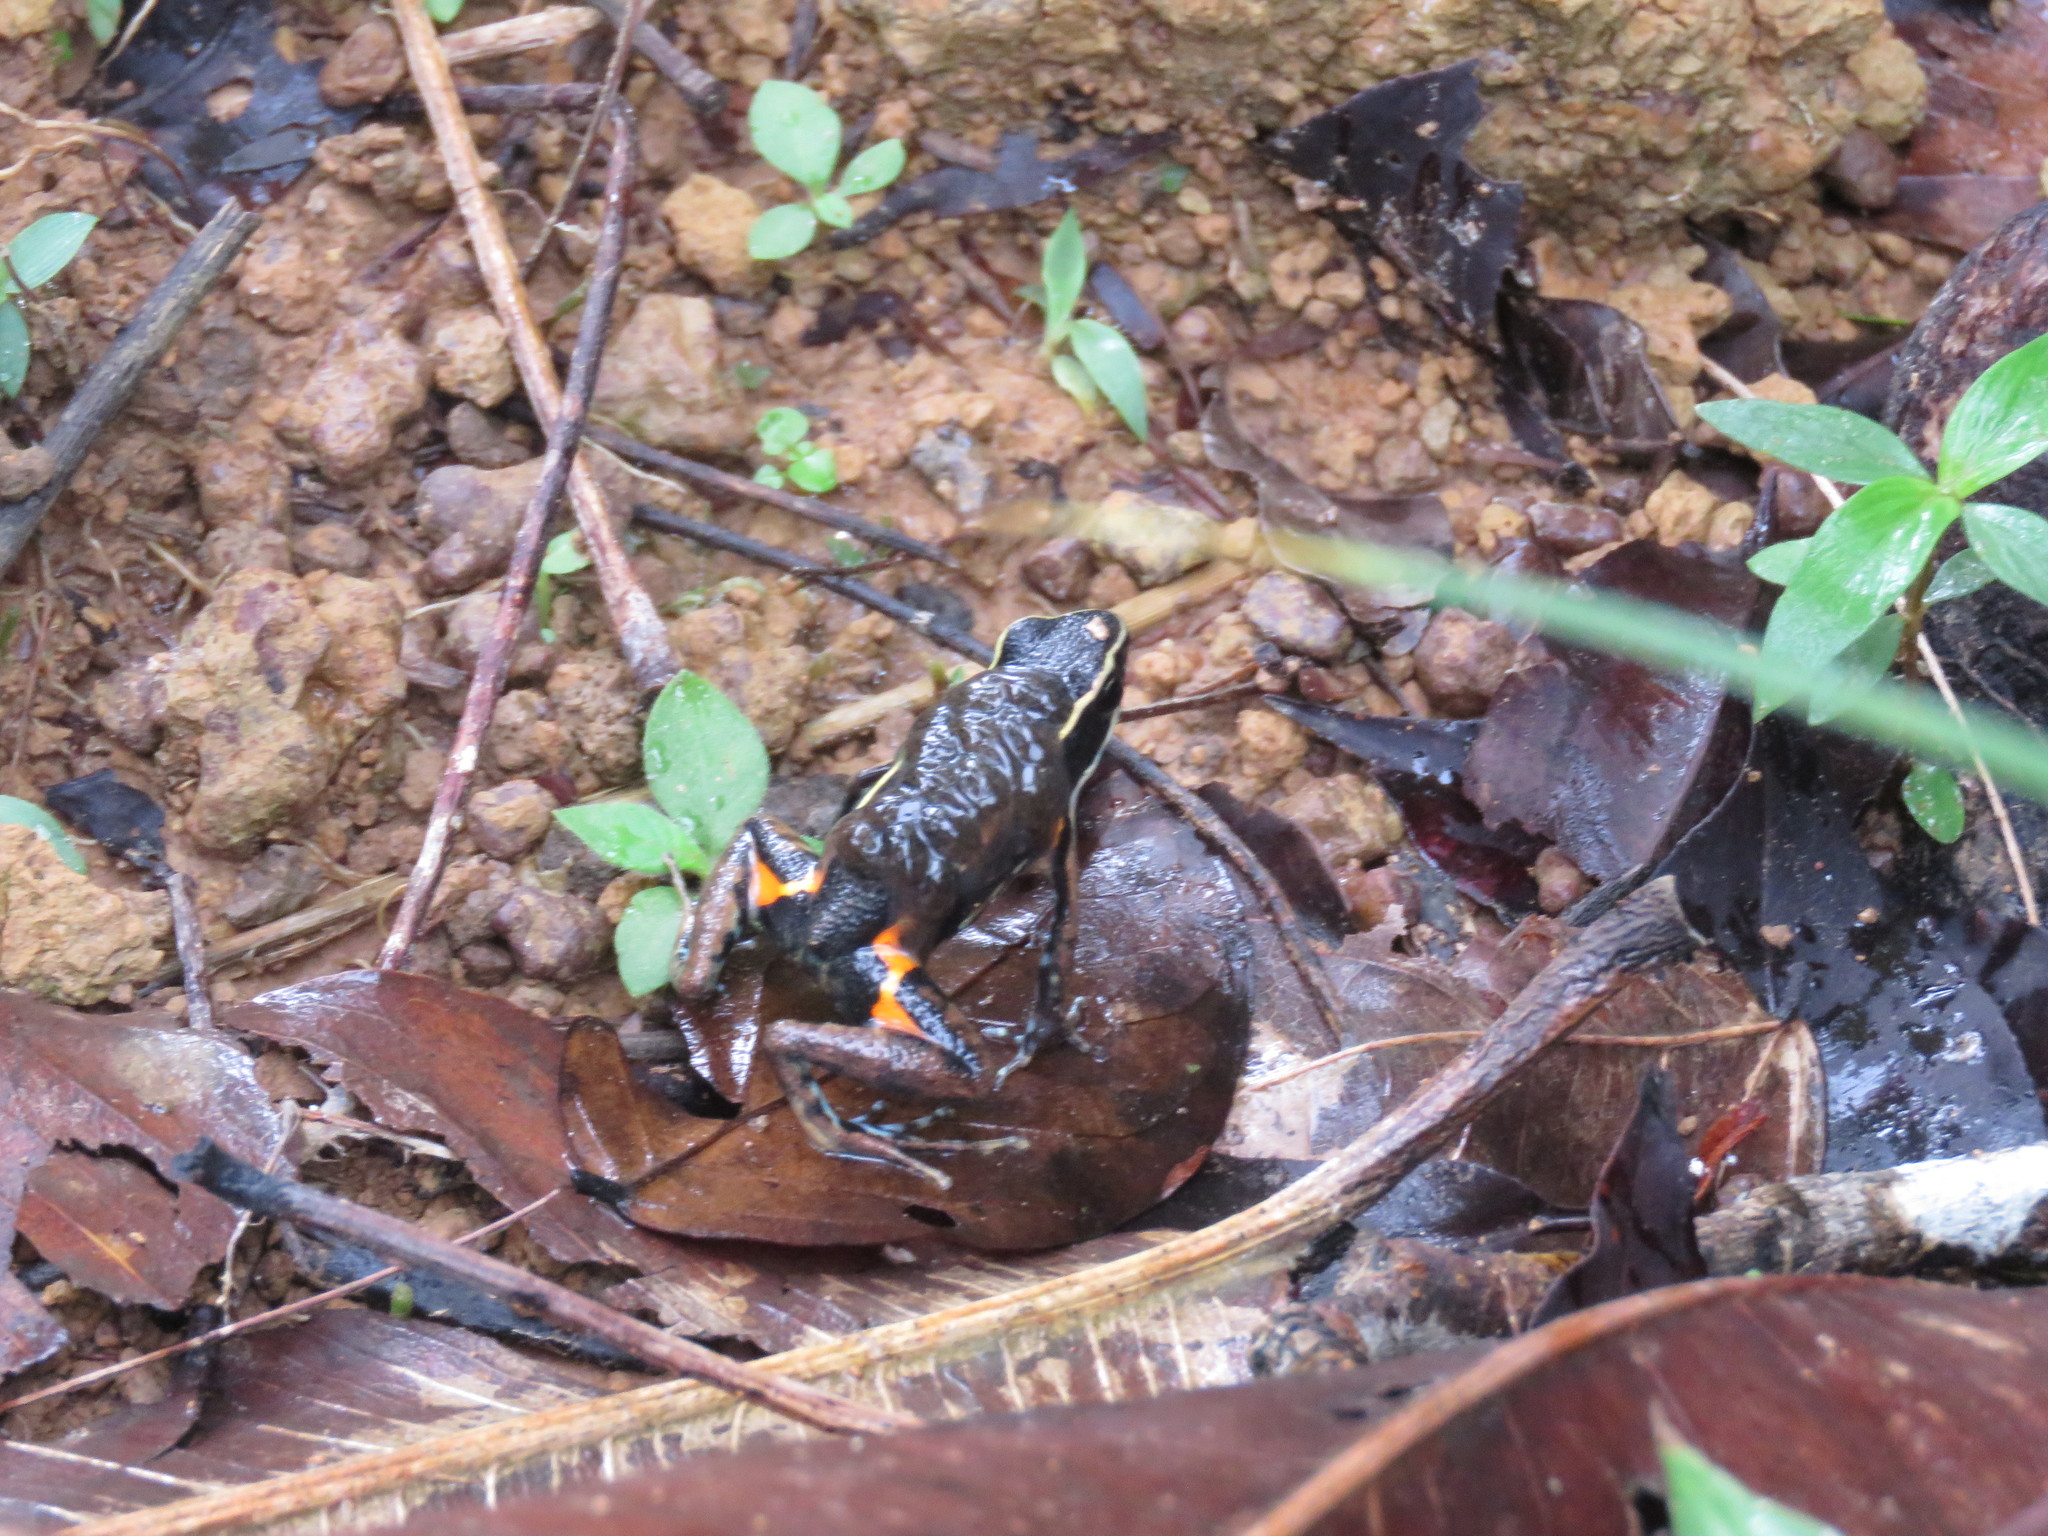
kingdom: Animalia
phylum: Chordata
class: Amphibia
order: Anura
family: Dendrobatidae
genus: Ameerega
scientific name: Ameerega picta
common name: Spot-legged poison frog
